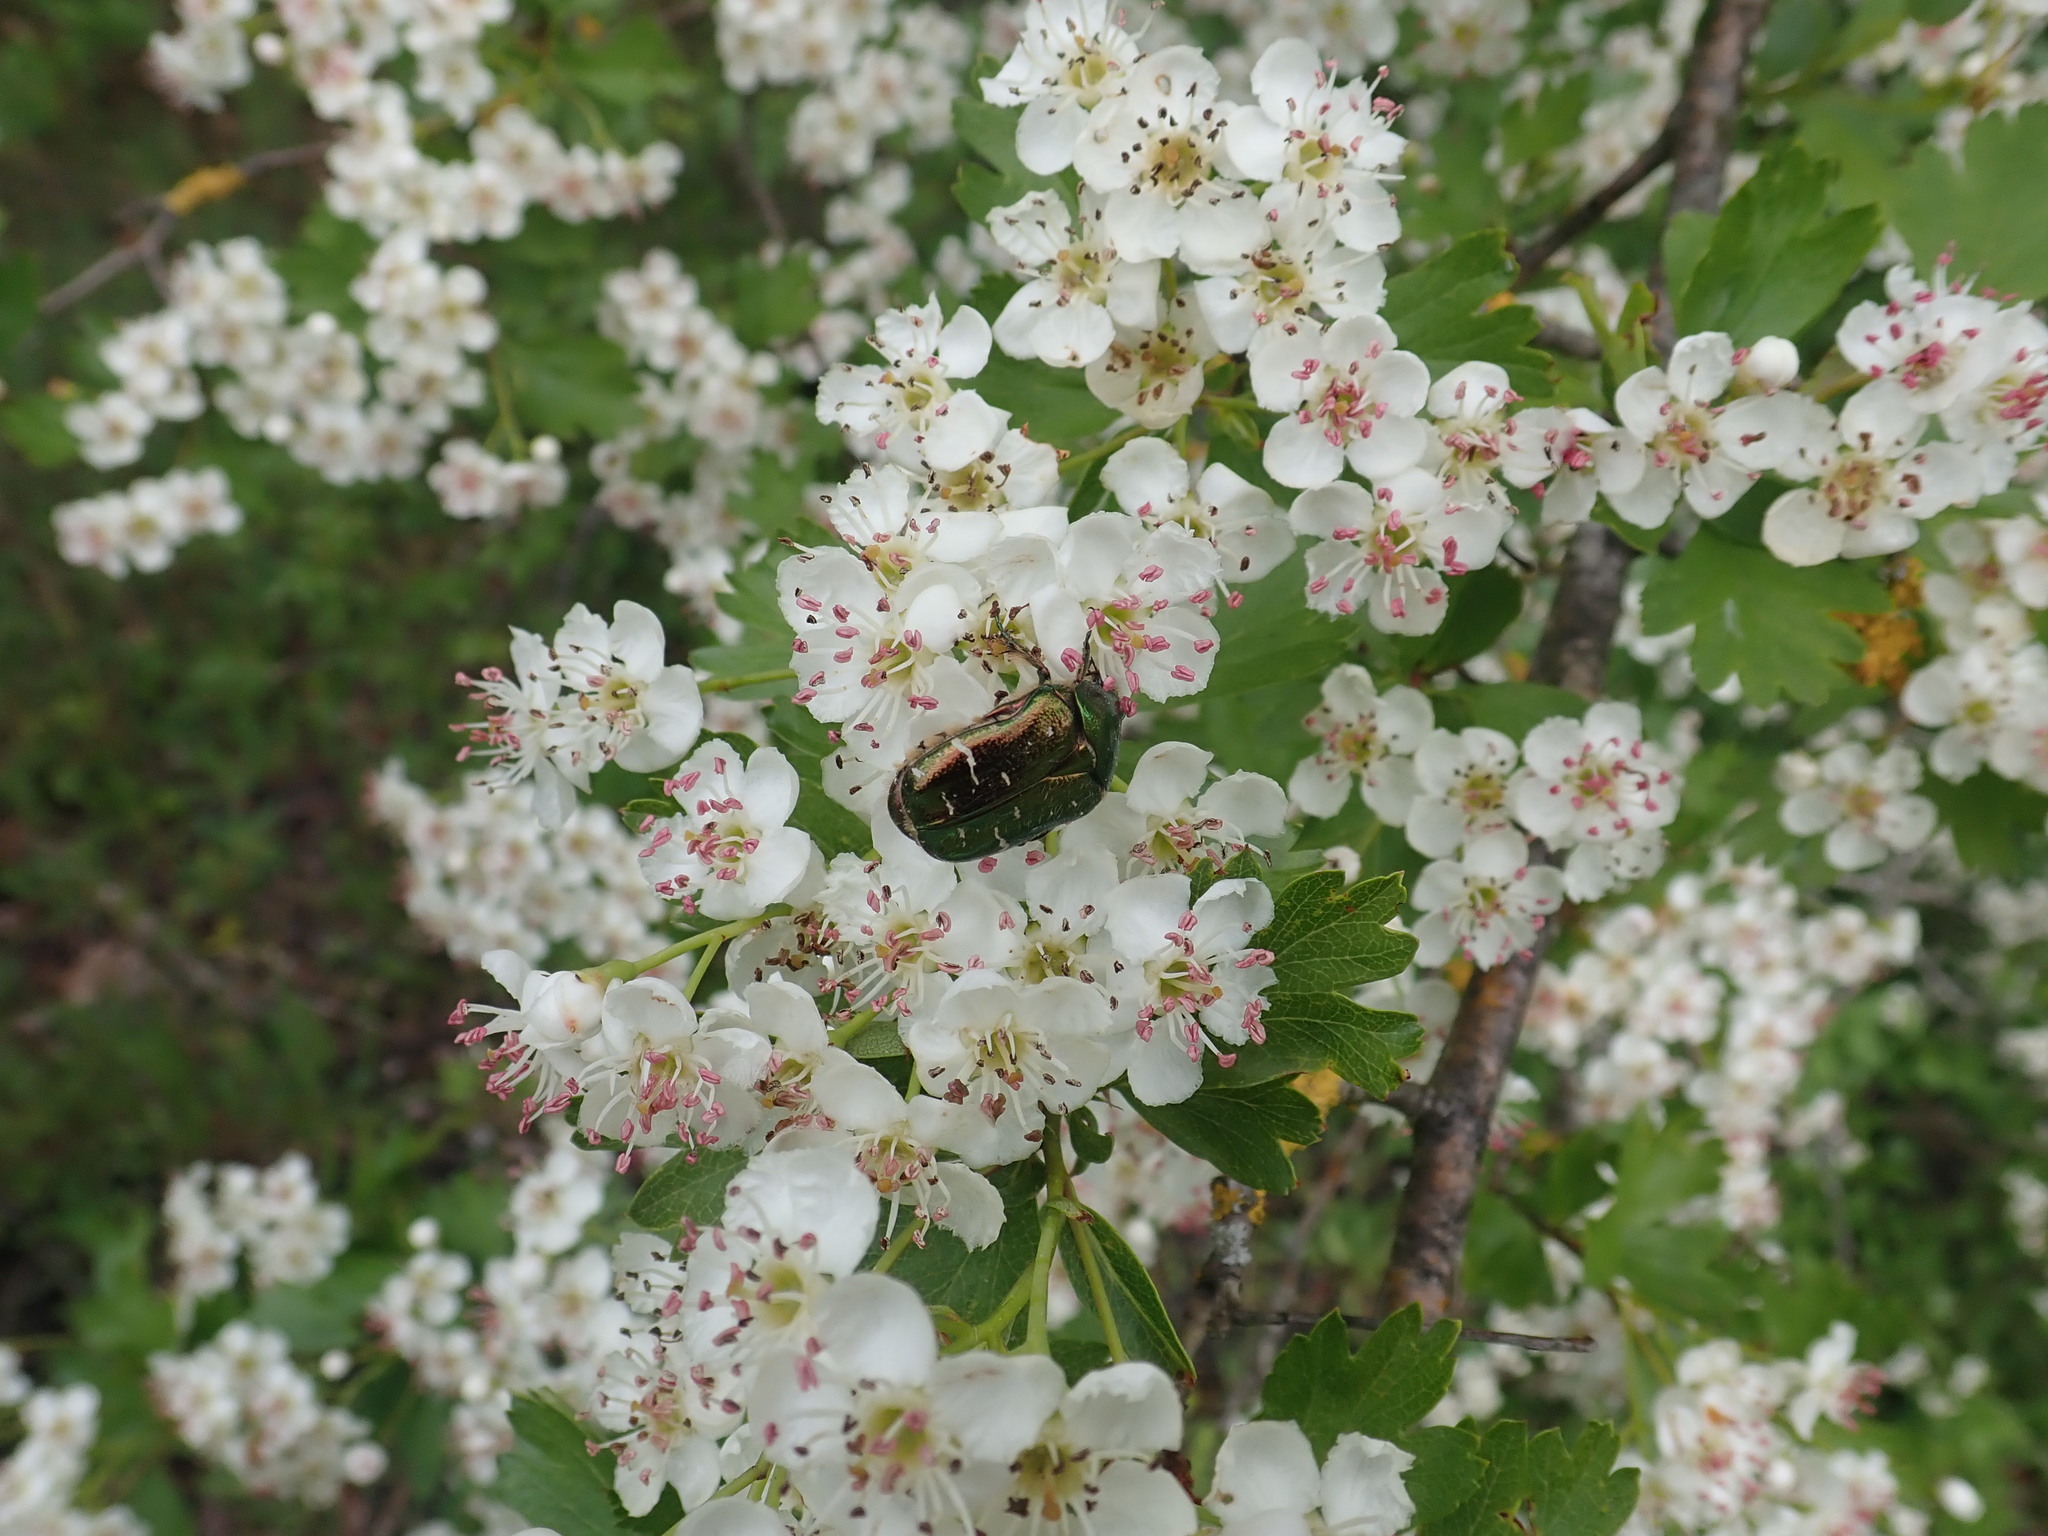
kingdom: Animalia
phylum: Arthropoda
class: Insecta
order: Coleoptera
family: Scarabaeidae
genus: Cetonia
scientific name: Cetonia aurata
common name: Rose chafer
